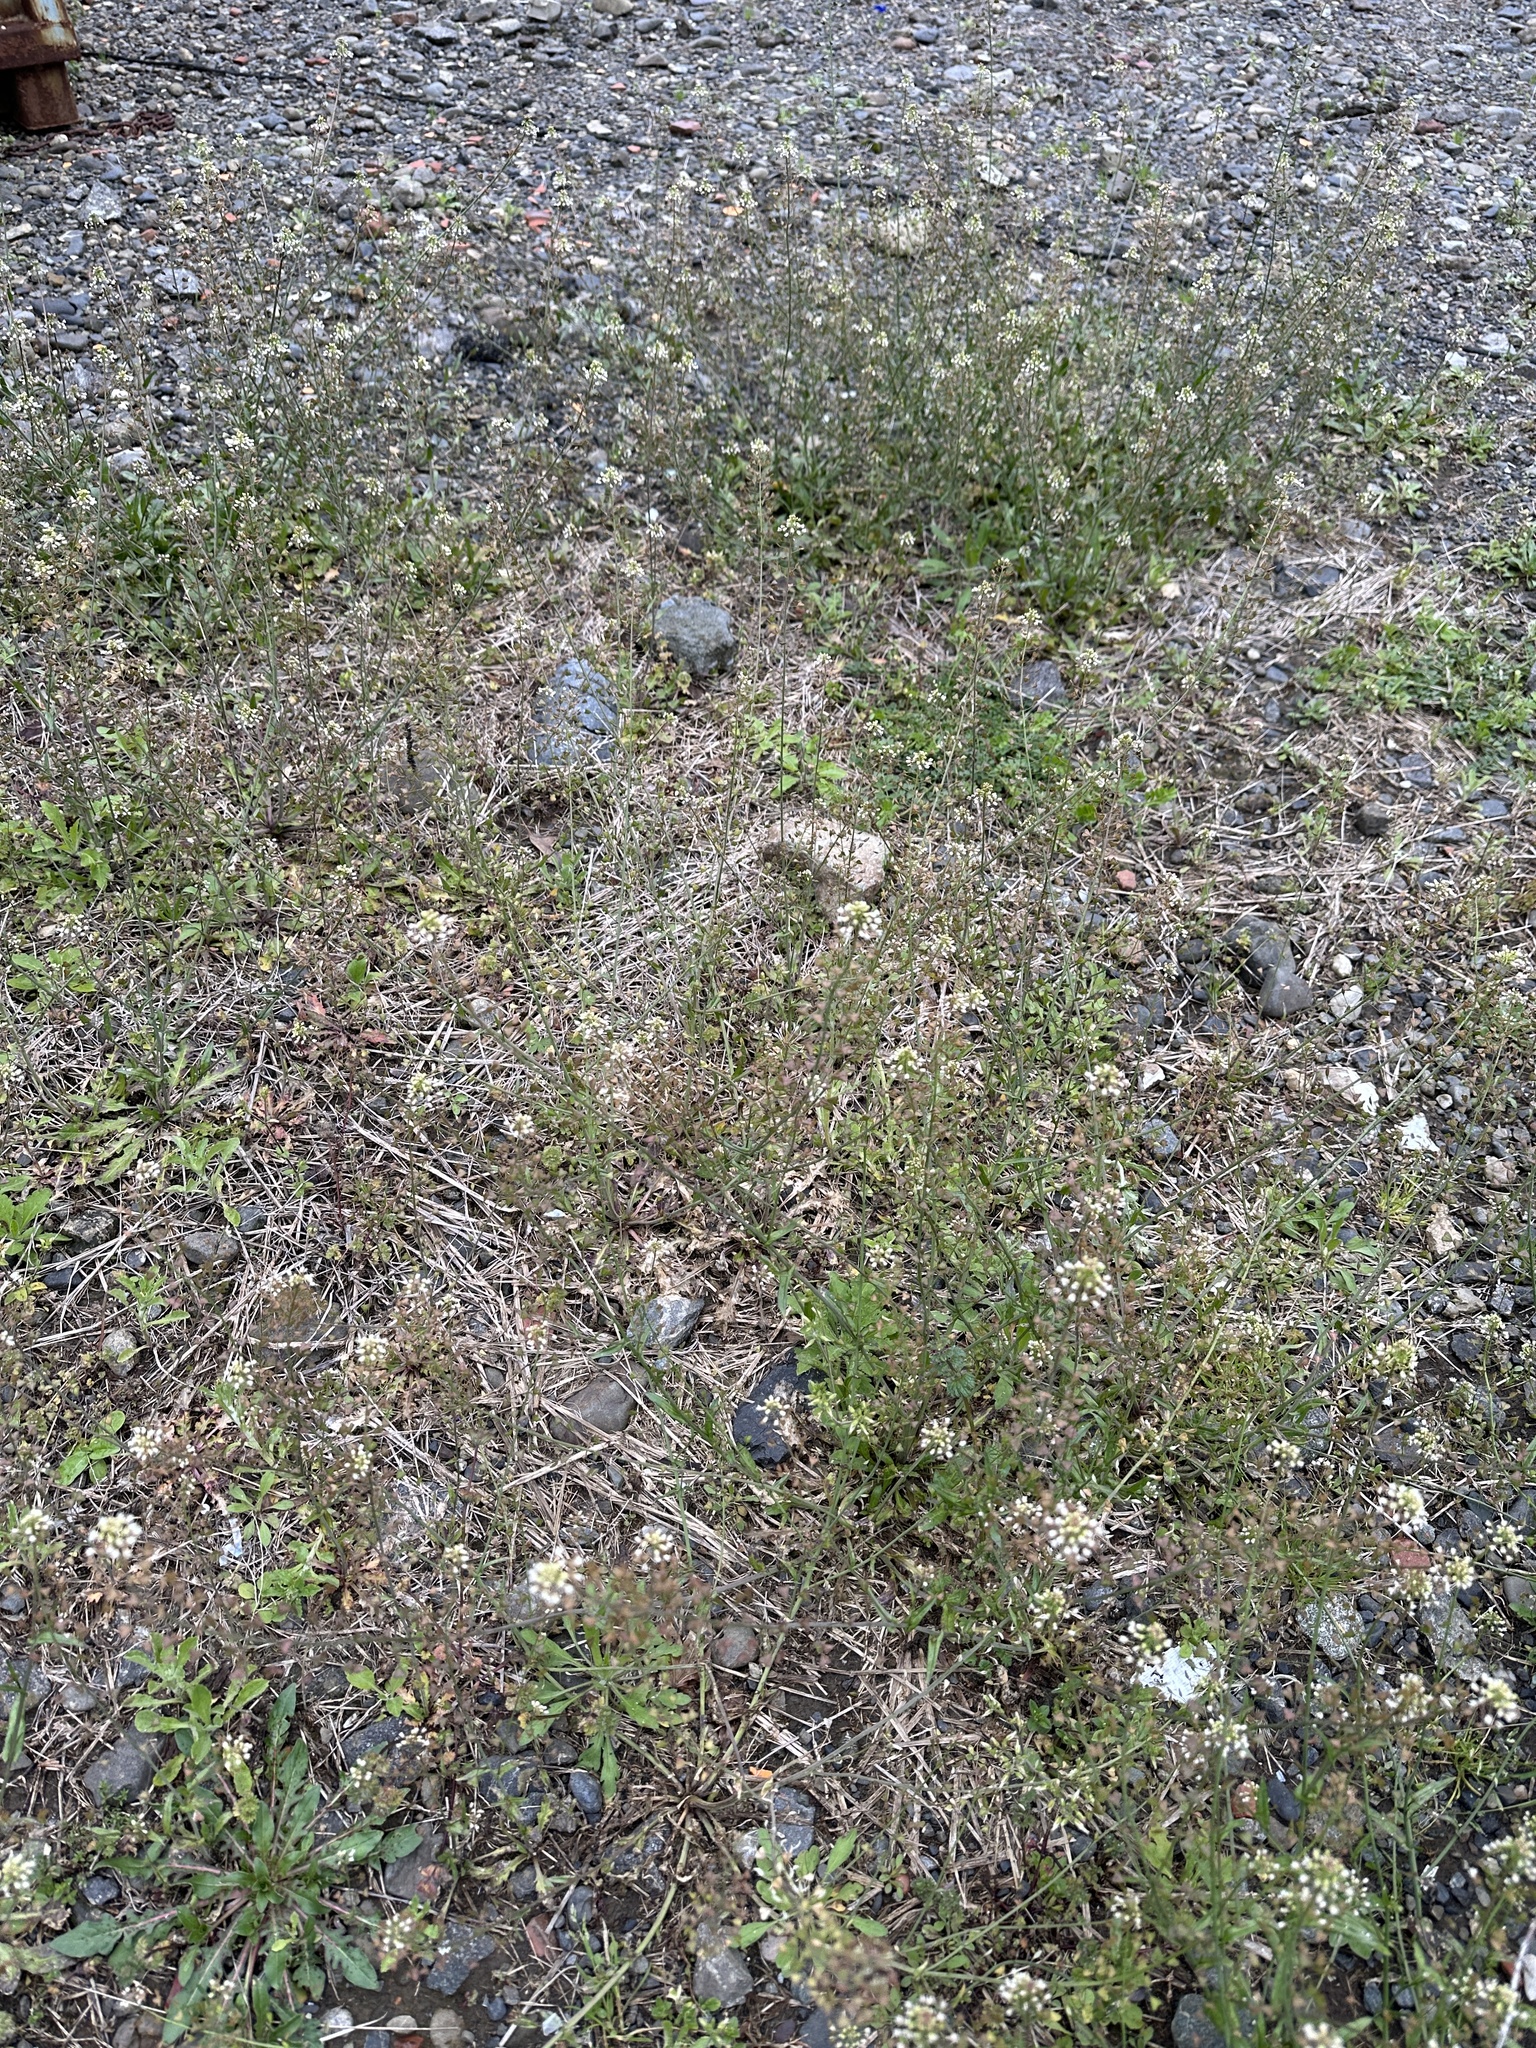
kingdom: Plantae
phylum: Tracheophyta
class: Magnoliopsida
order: Brassicales
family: Brassicaceae
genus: Capsella
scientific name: Capsella bursa-pastoris
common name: Shepherd's purse
